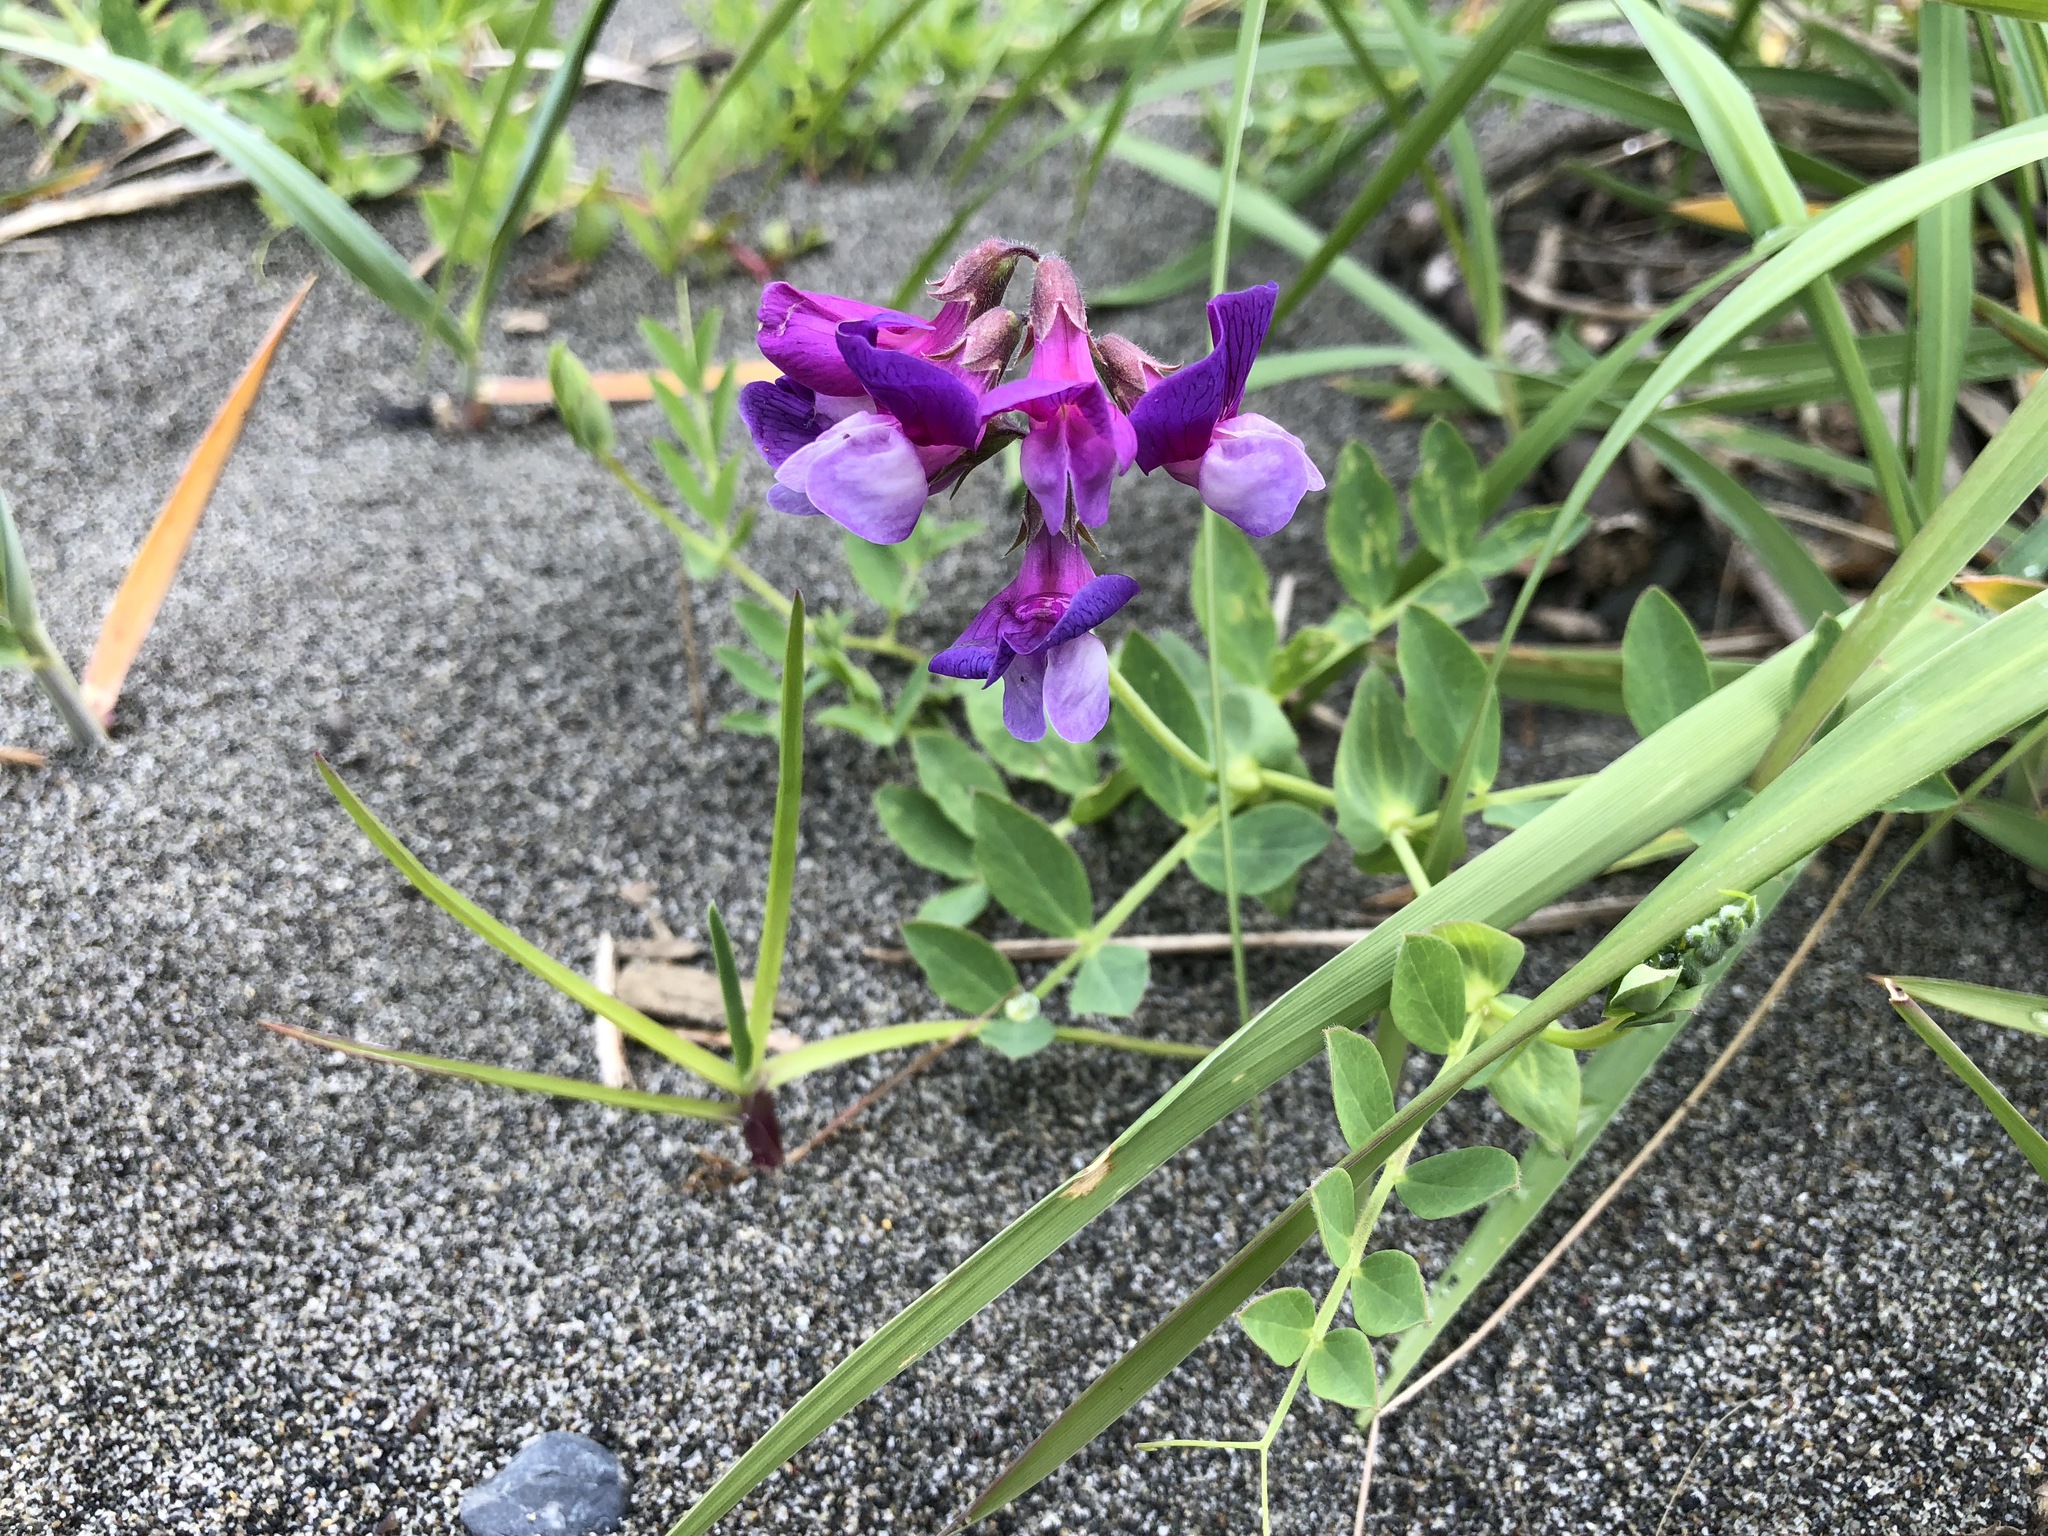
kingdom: Plantae
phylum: Tracheophyta
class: Magnoliopsida
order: Fabales
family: Fabaceae
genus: Lathyrus
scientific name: Lathyrus japonicus
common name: Sea pea
